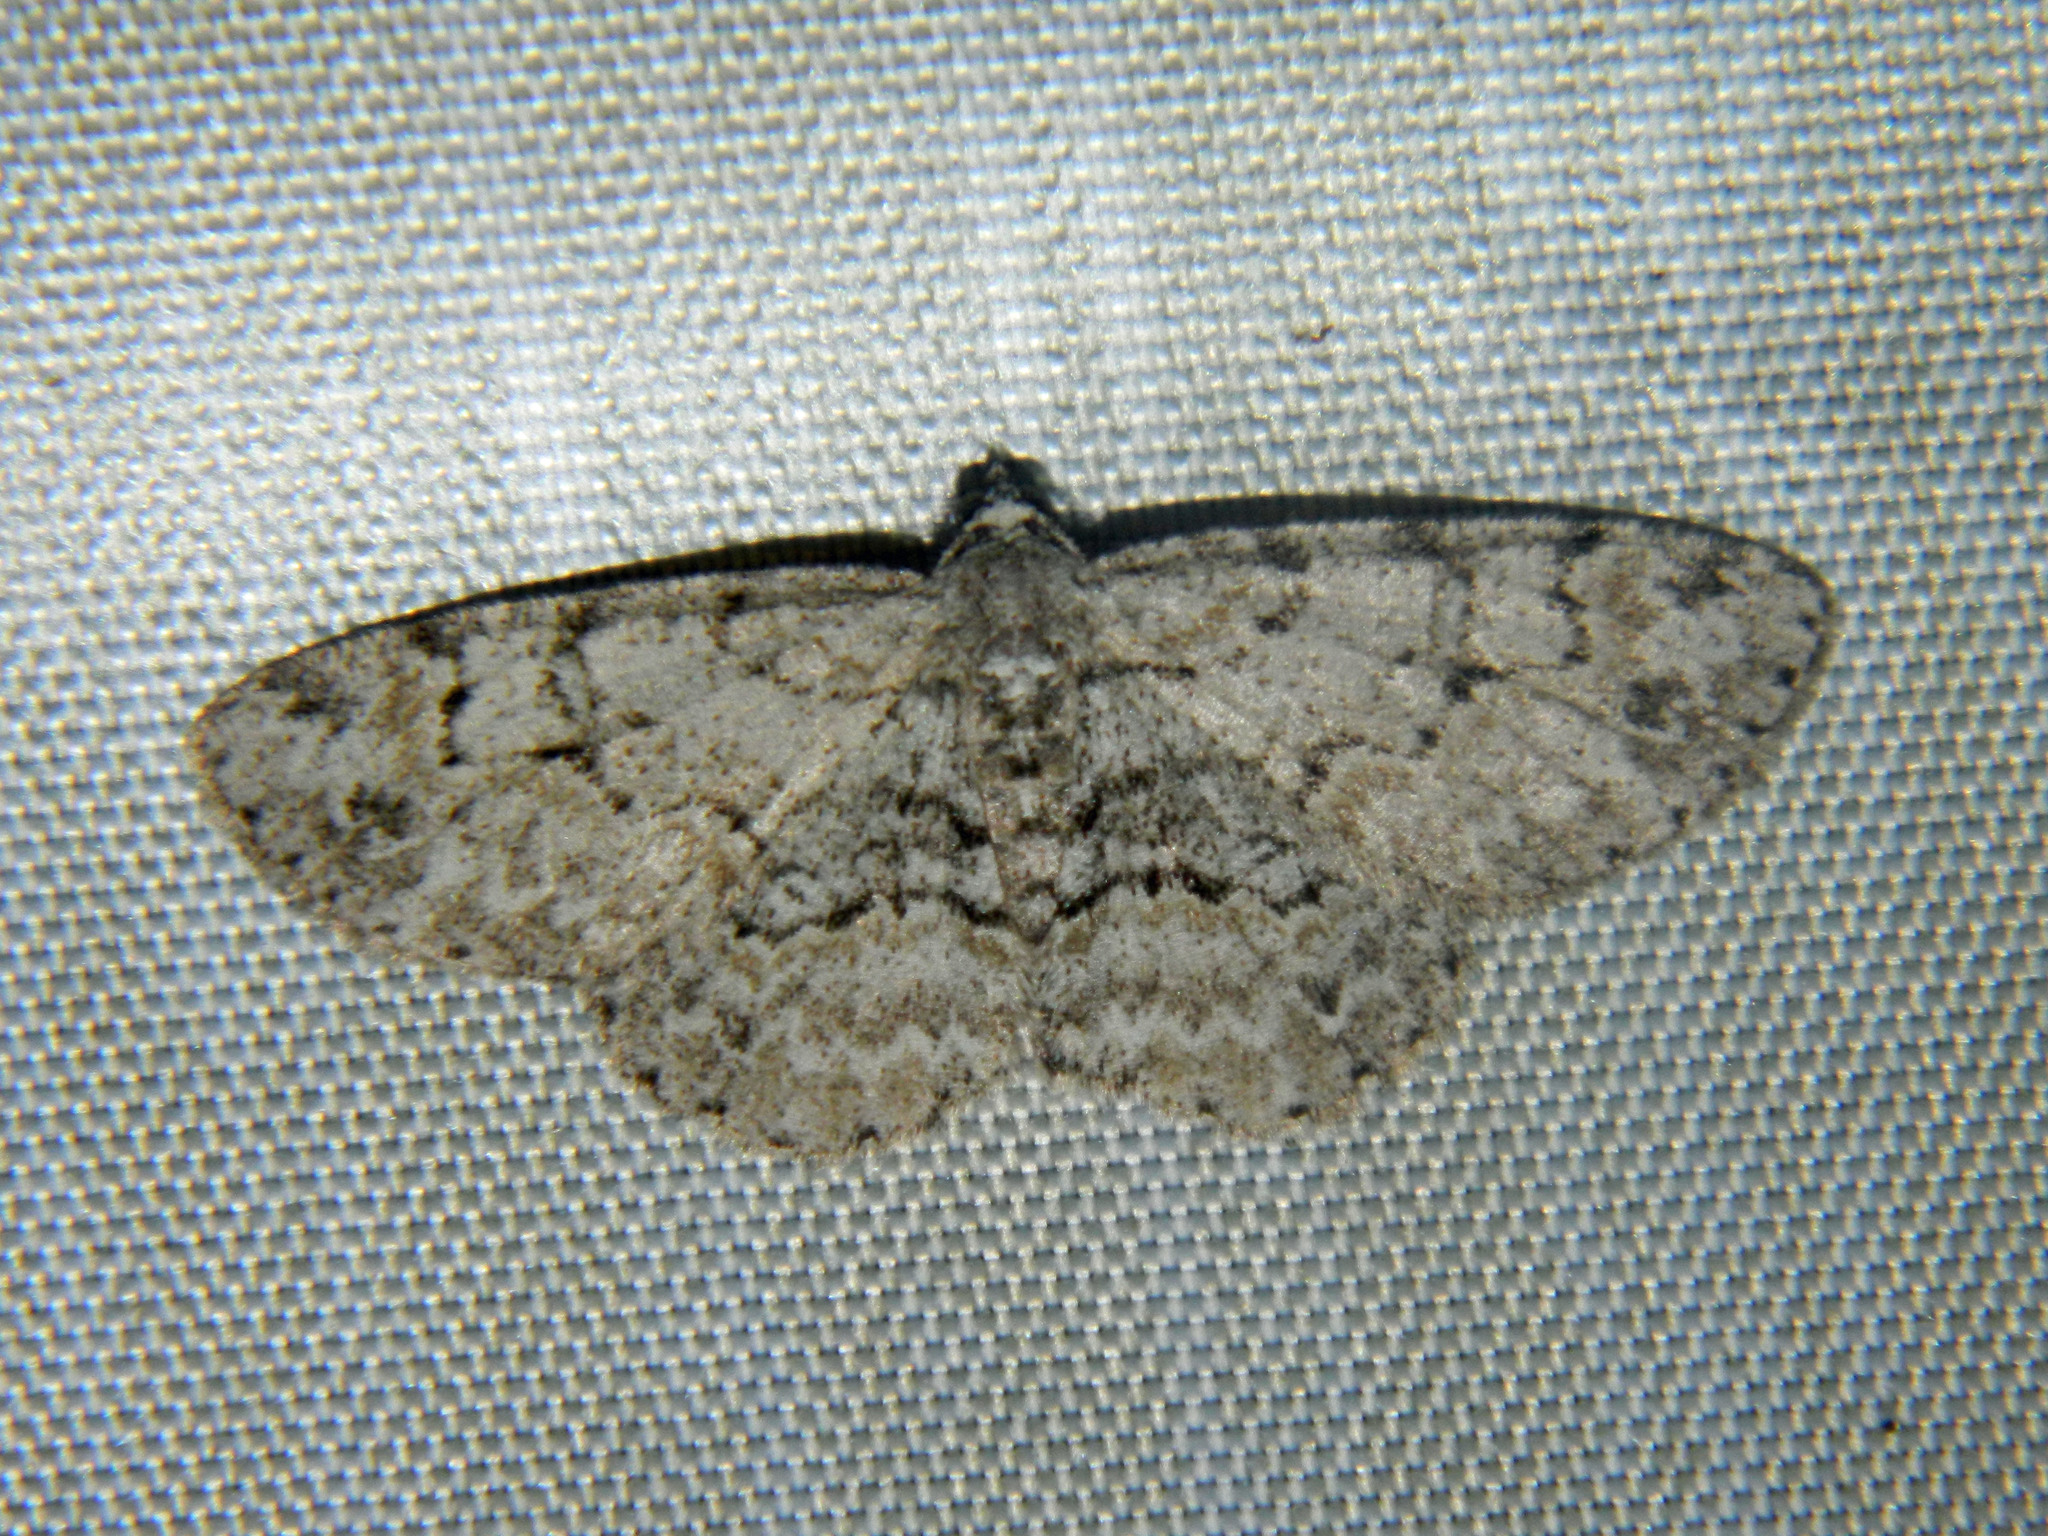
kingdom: Animalia
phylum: Arthropoda
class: Insecta
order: Lepidoptera
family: Geometridae
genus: Iridopsis
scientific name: Iridopsis ephyraria
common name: Pale-winged gray
